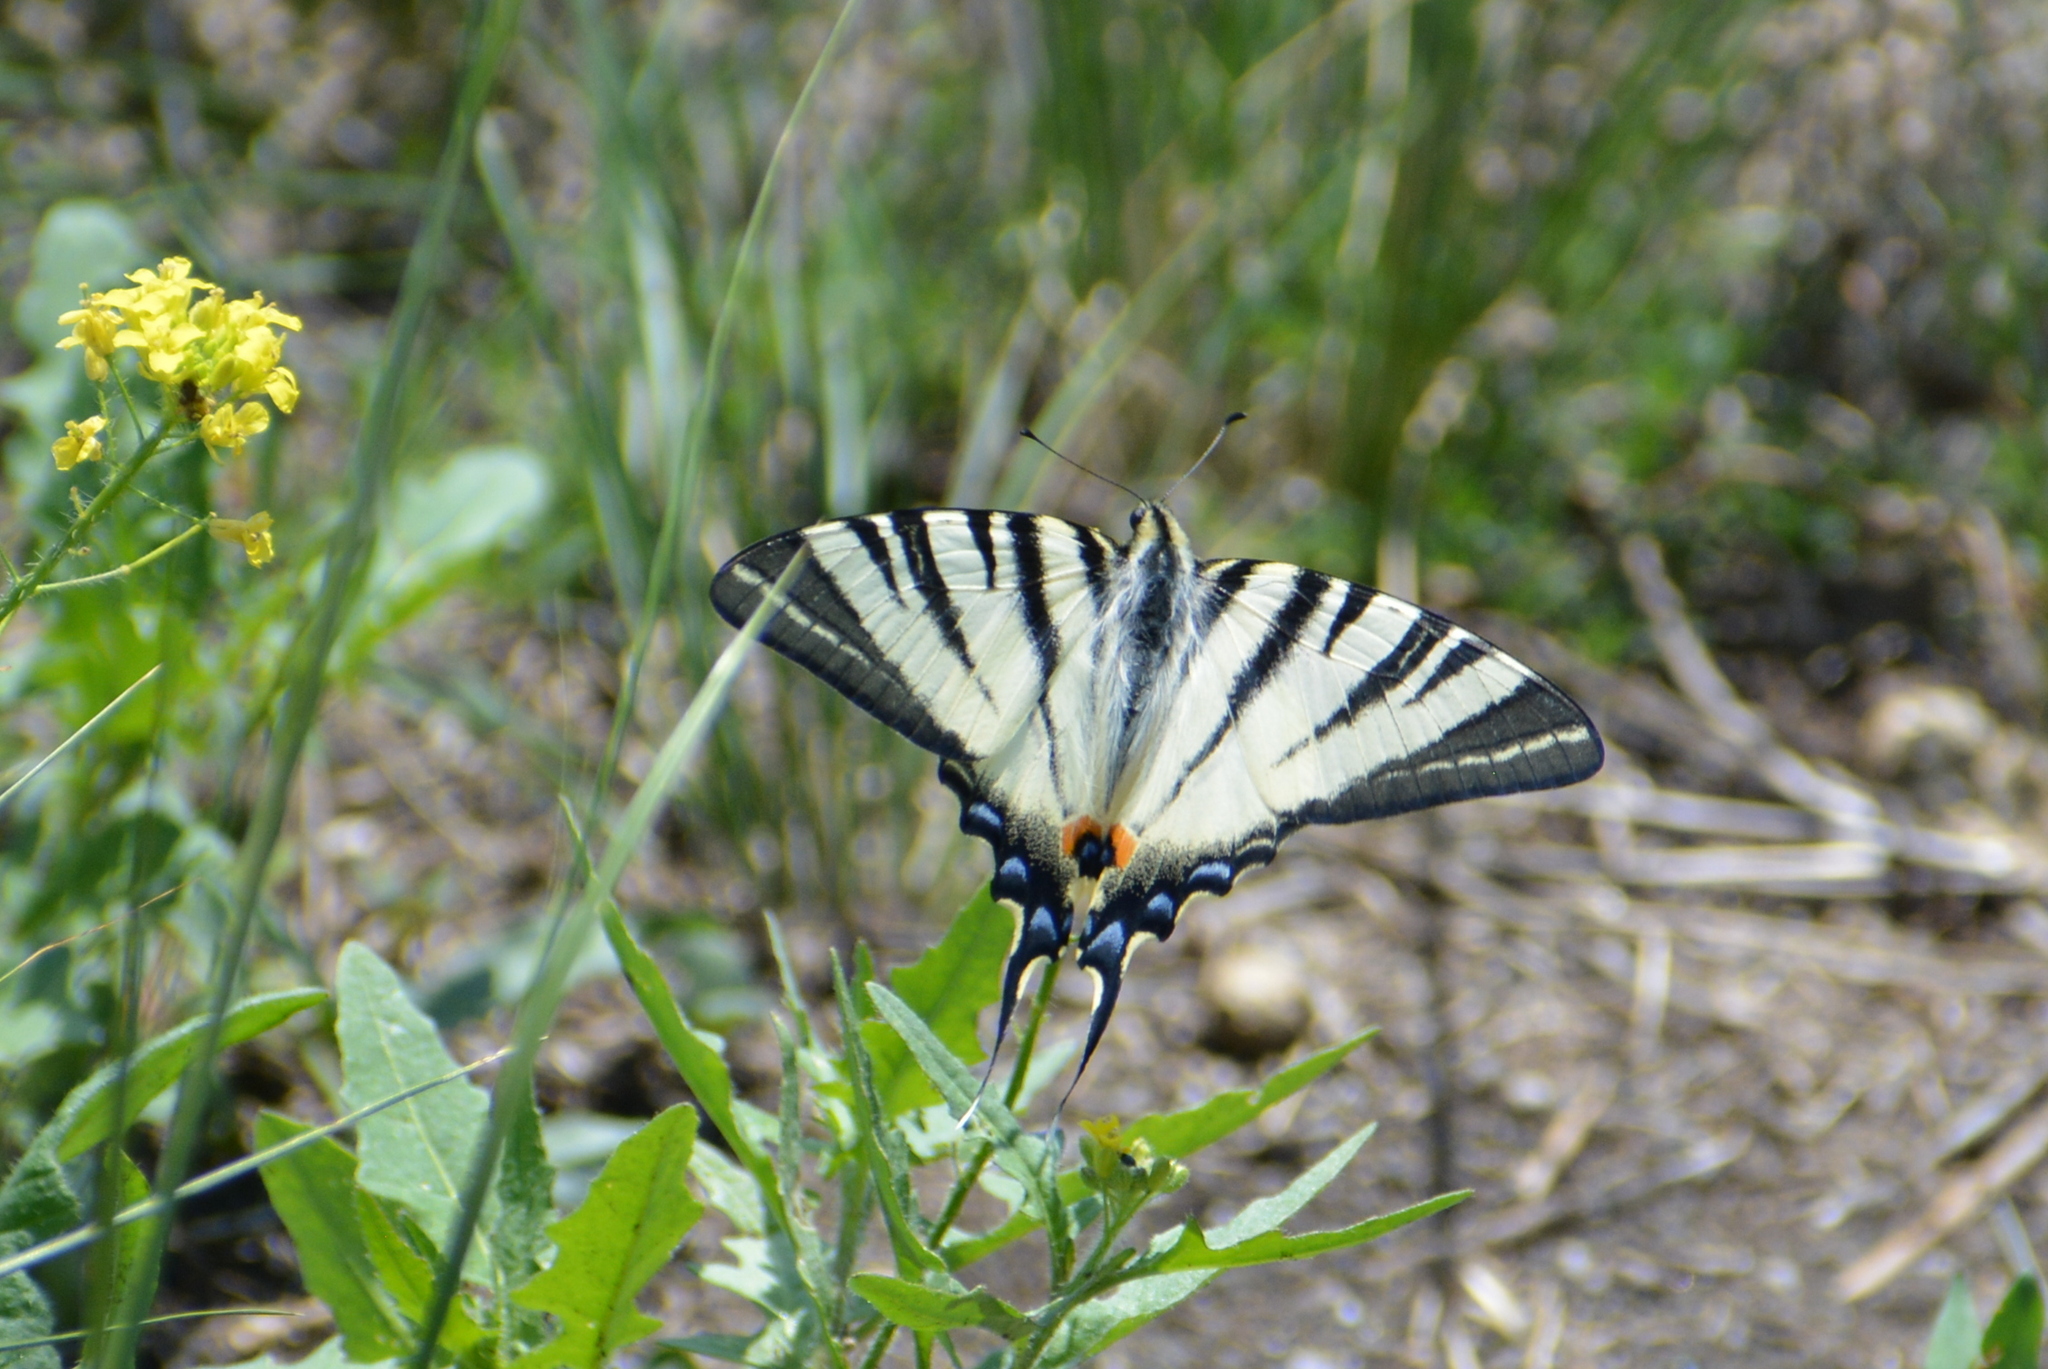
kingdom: Animalia
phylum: Arthropoda
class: Insecta
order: Lepidoptera
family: Papilionidae
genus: Iphiclides
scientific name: Iphiclides podalirius
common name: Scarce swallowtail
